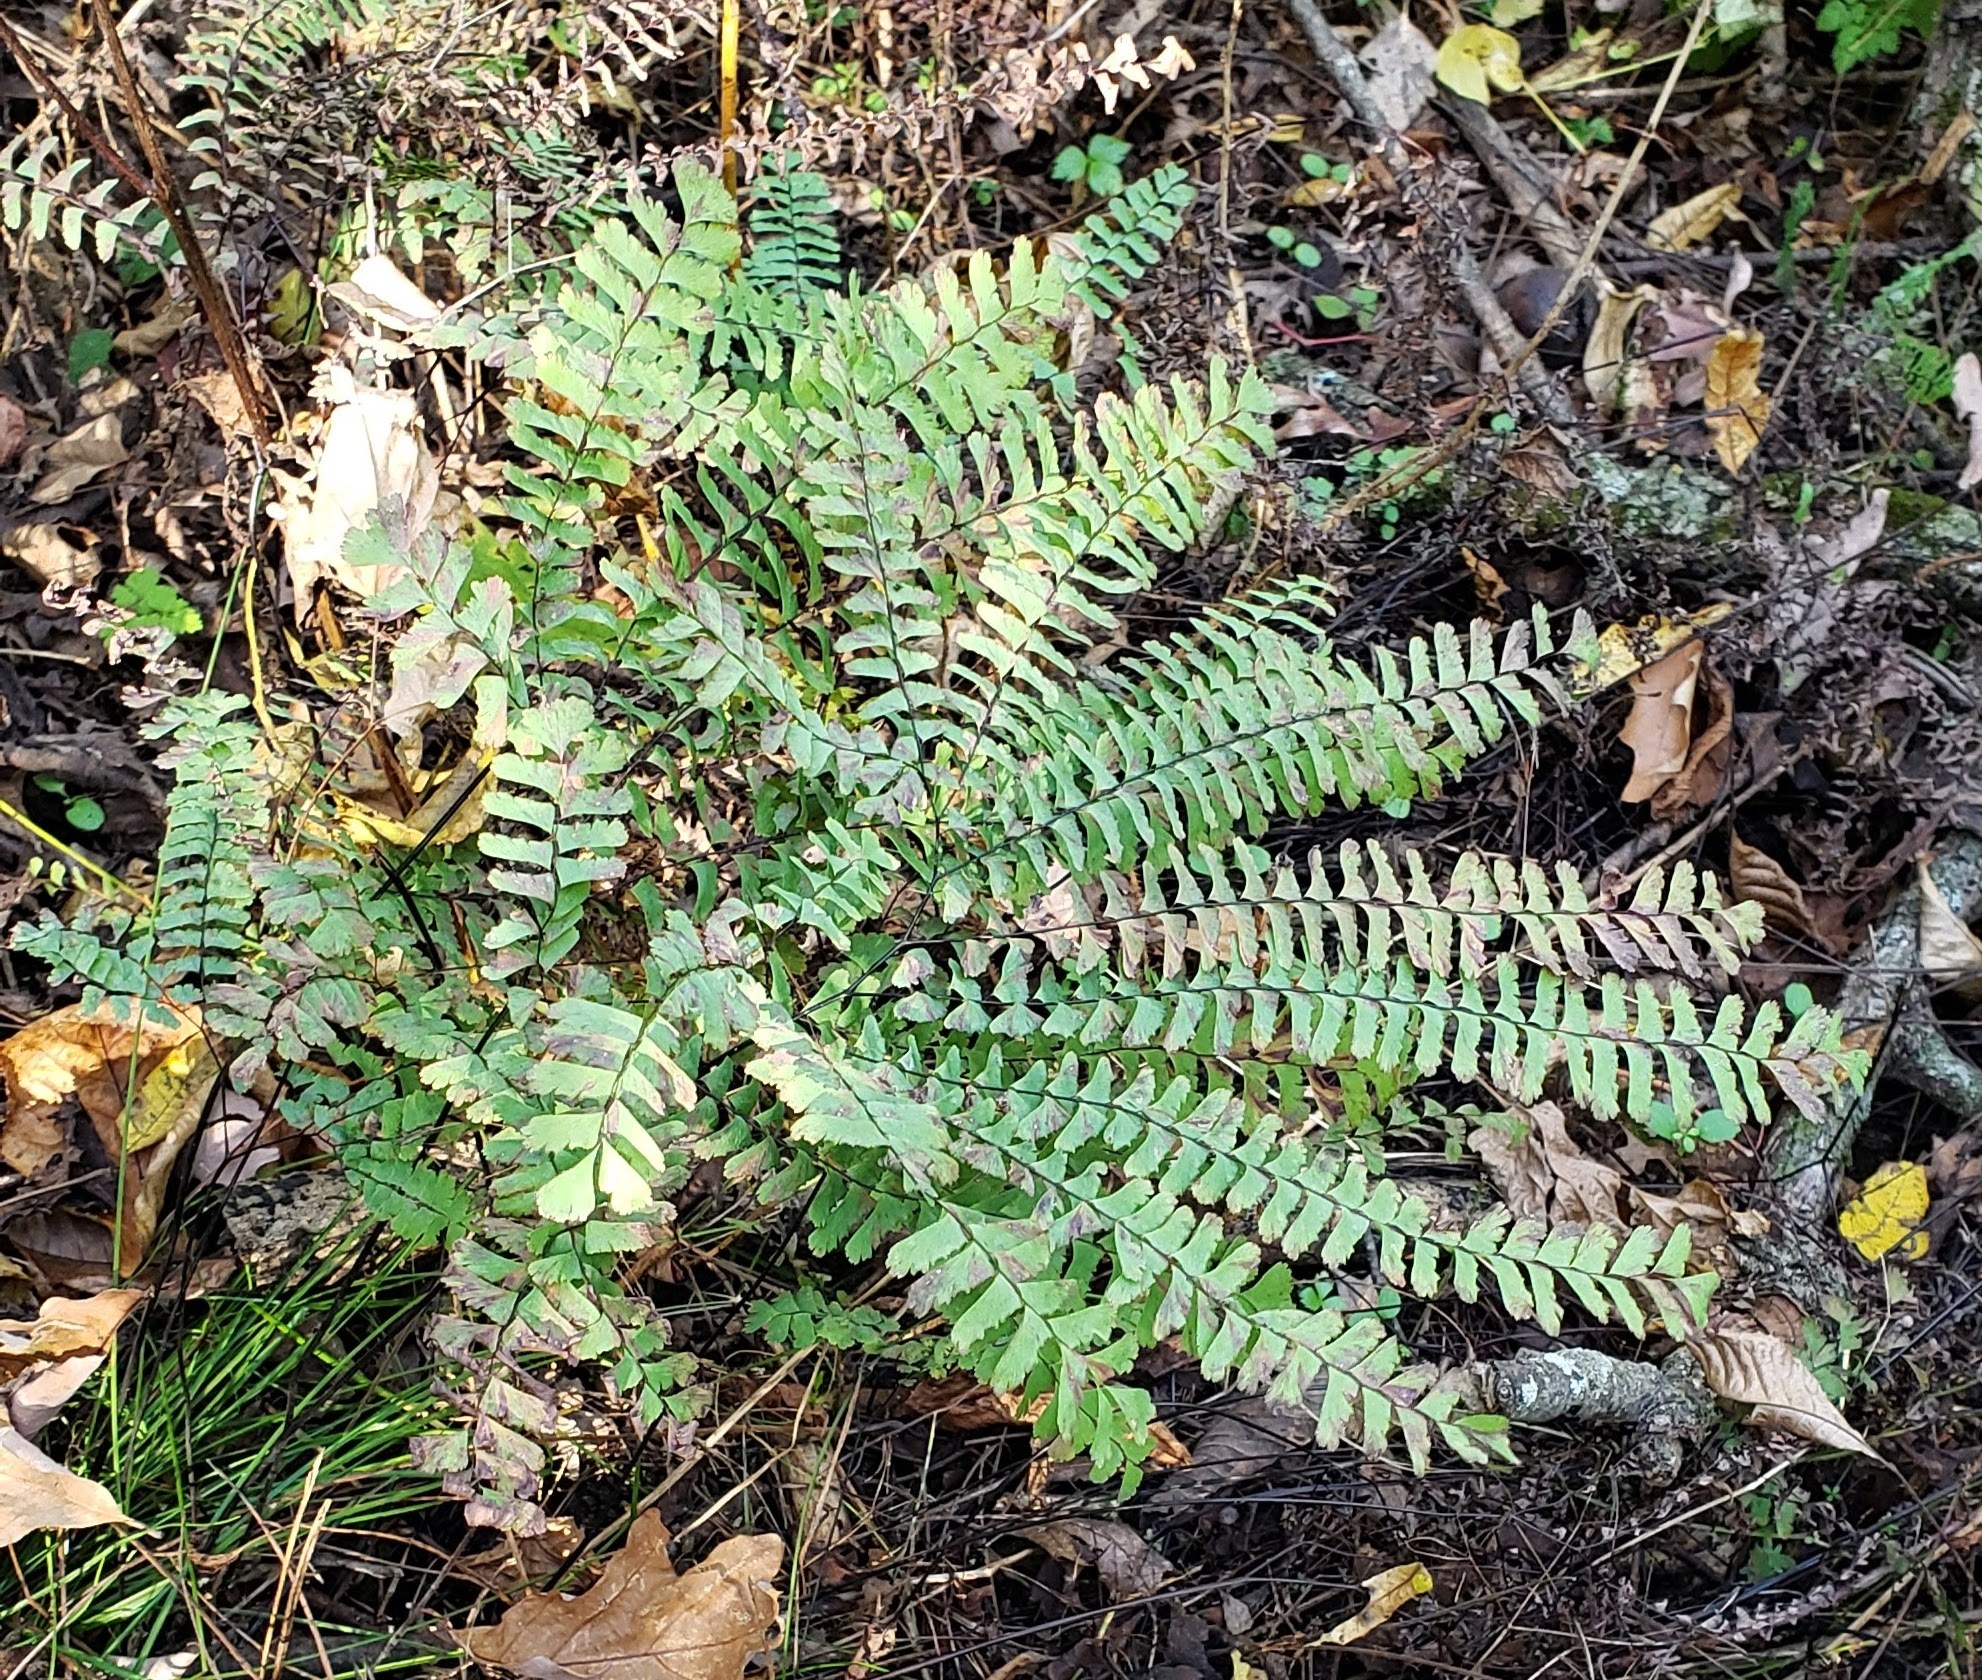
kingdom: Plantae
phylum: Tracheophyta
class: Polypodiopsida
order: Polypodiales
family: Pteridaceae
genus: Adiantum
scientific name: Adiantum pedatum
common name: Five-finger fern
